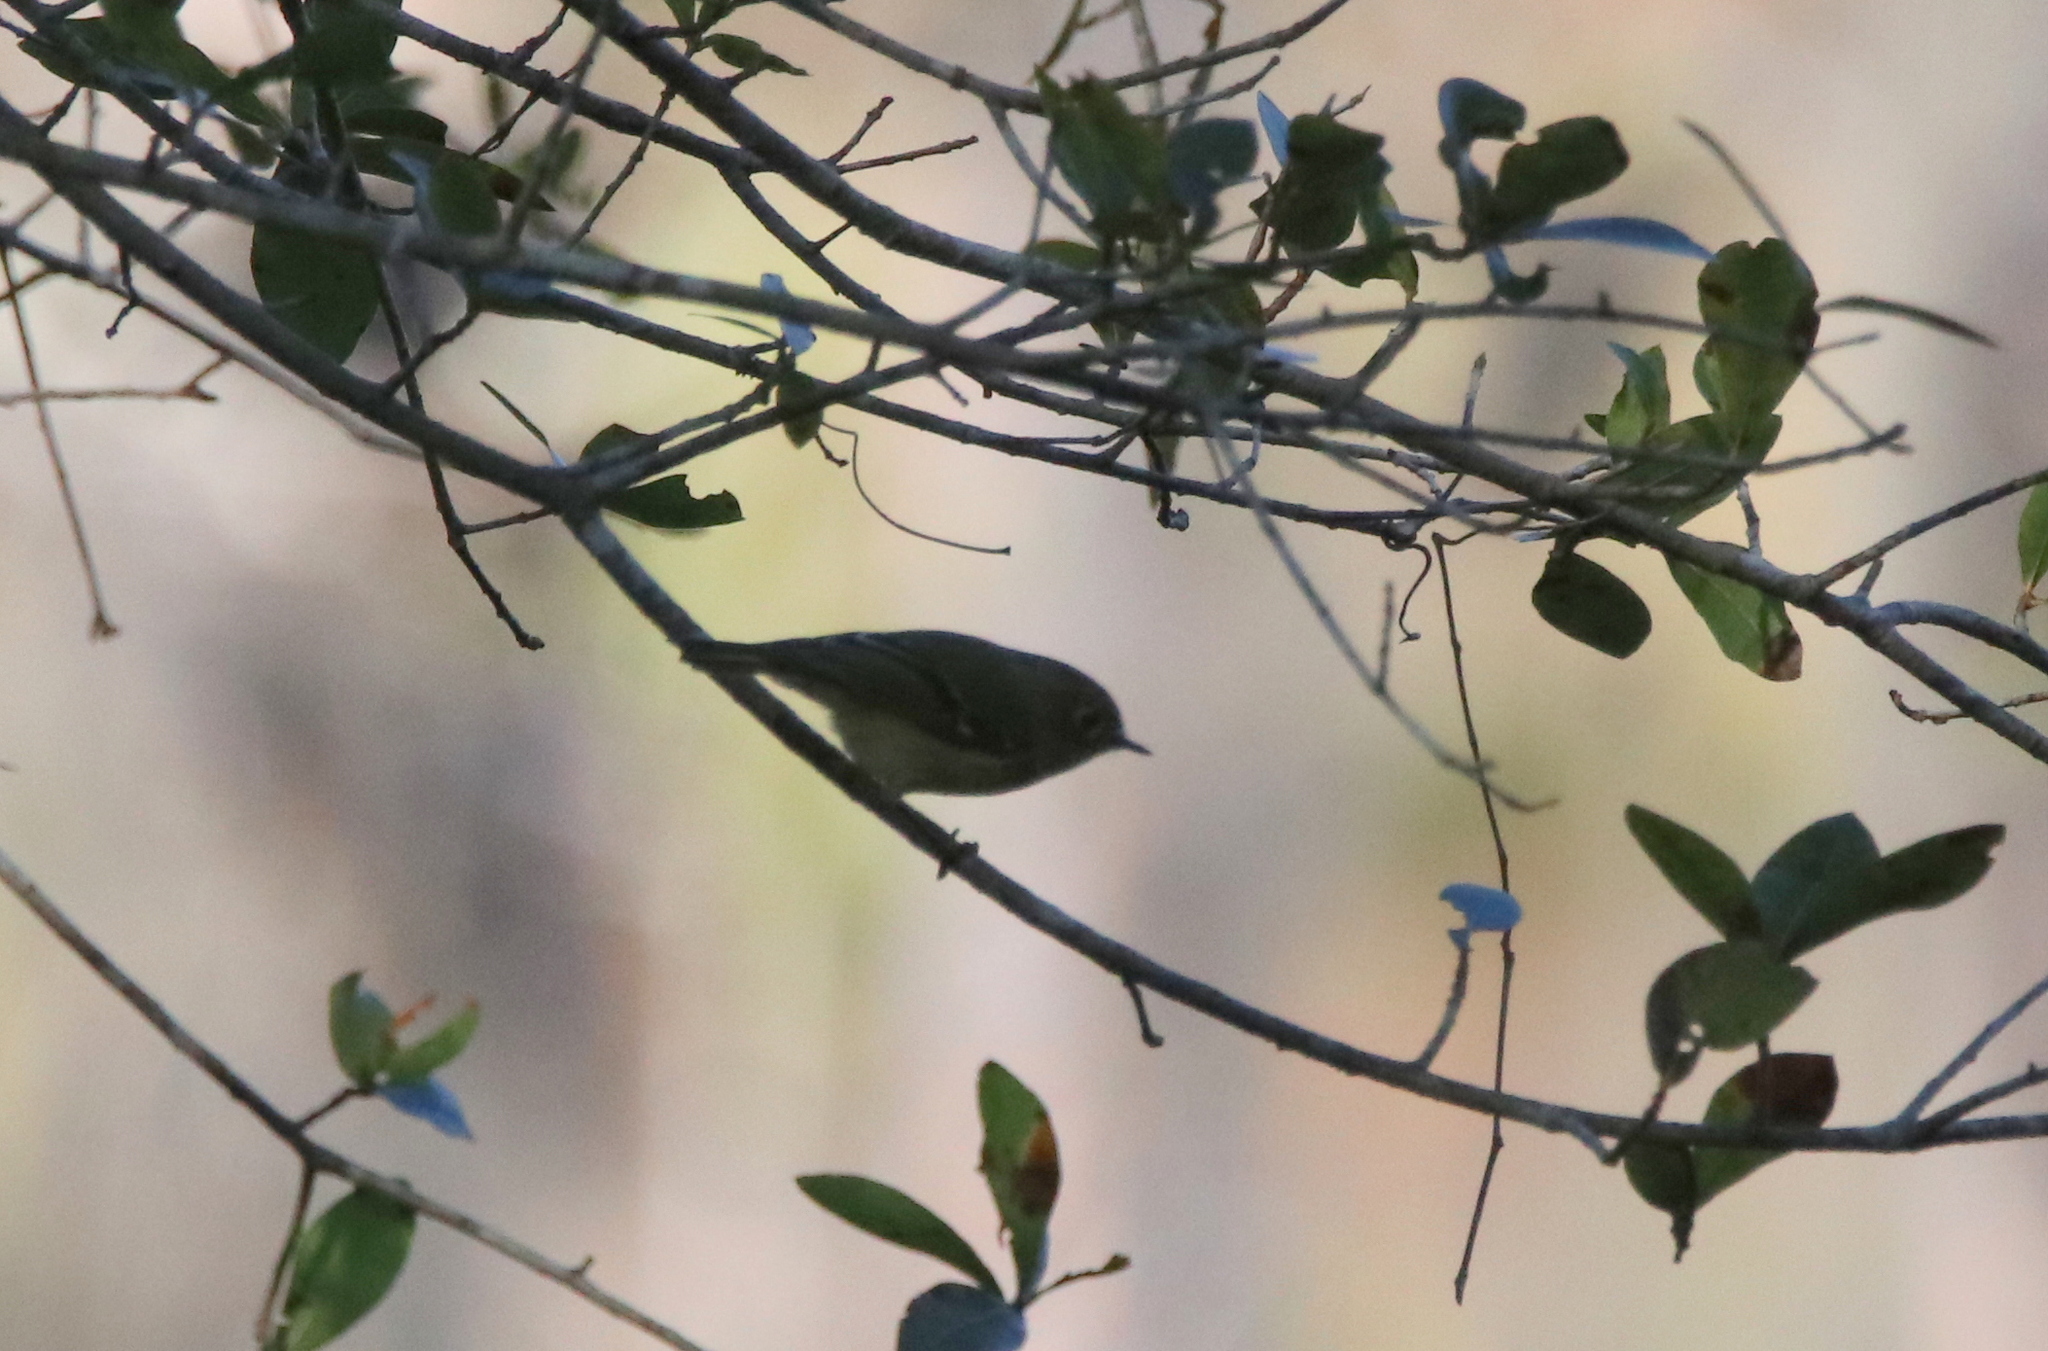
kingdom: Animalia
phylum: Chordata
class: Aves
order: Passeriformes
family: Regulidae
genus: Regulus
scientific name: Regulus calendula
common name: Ruby-crowned kinglet
